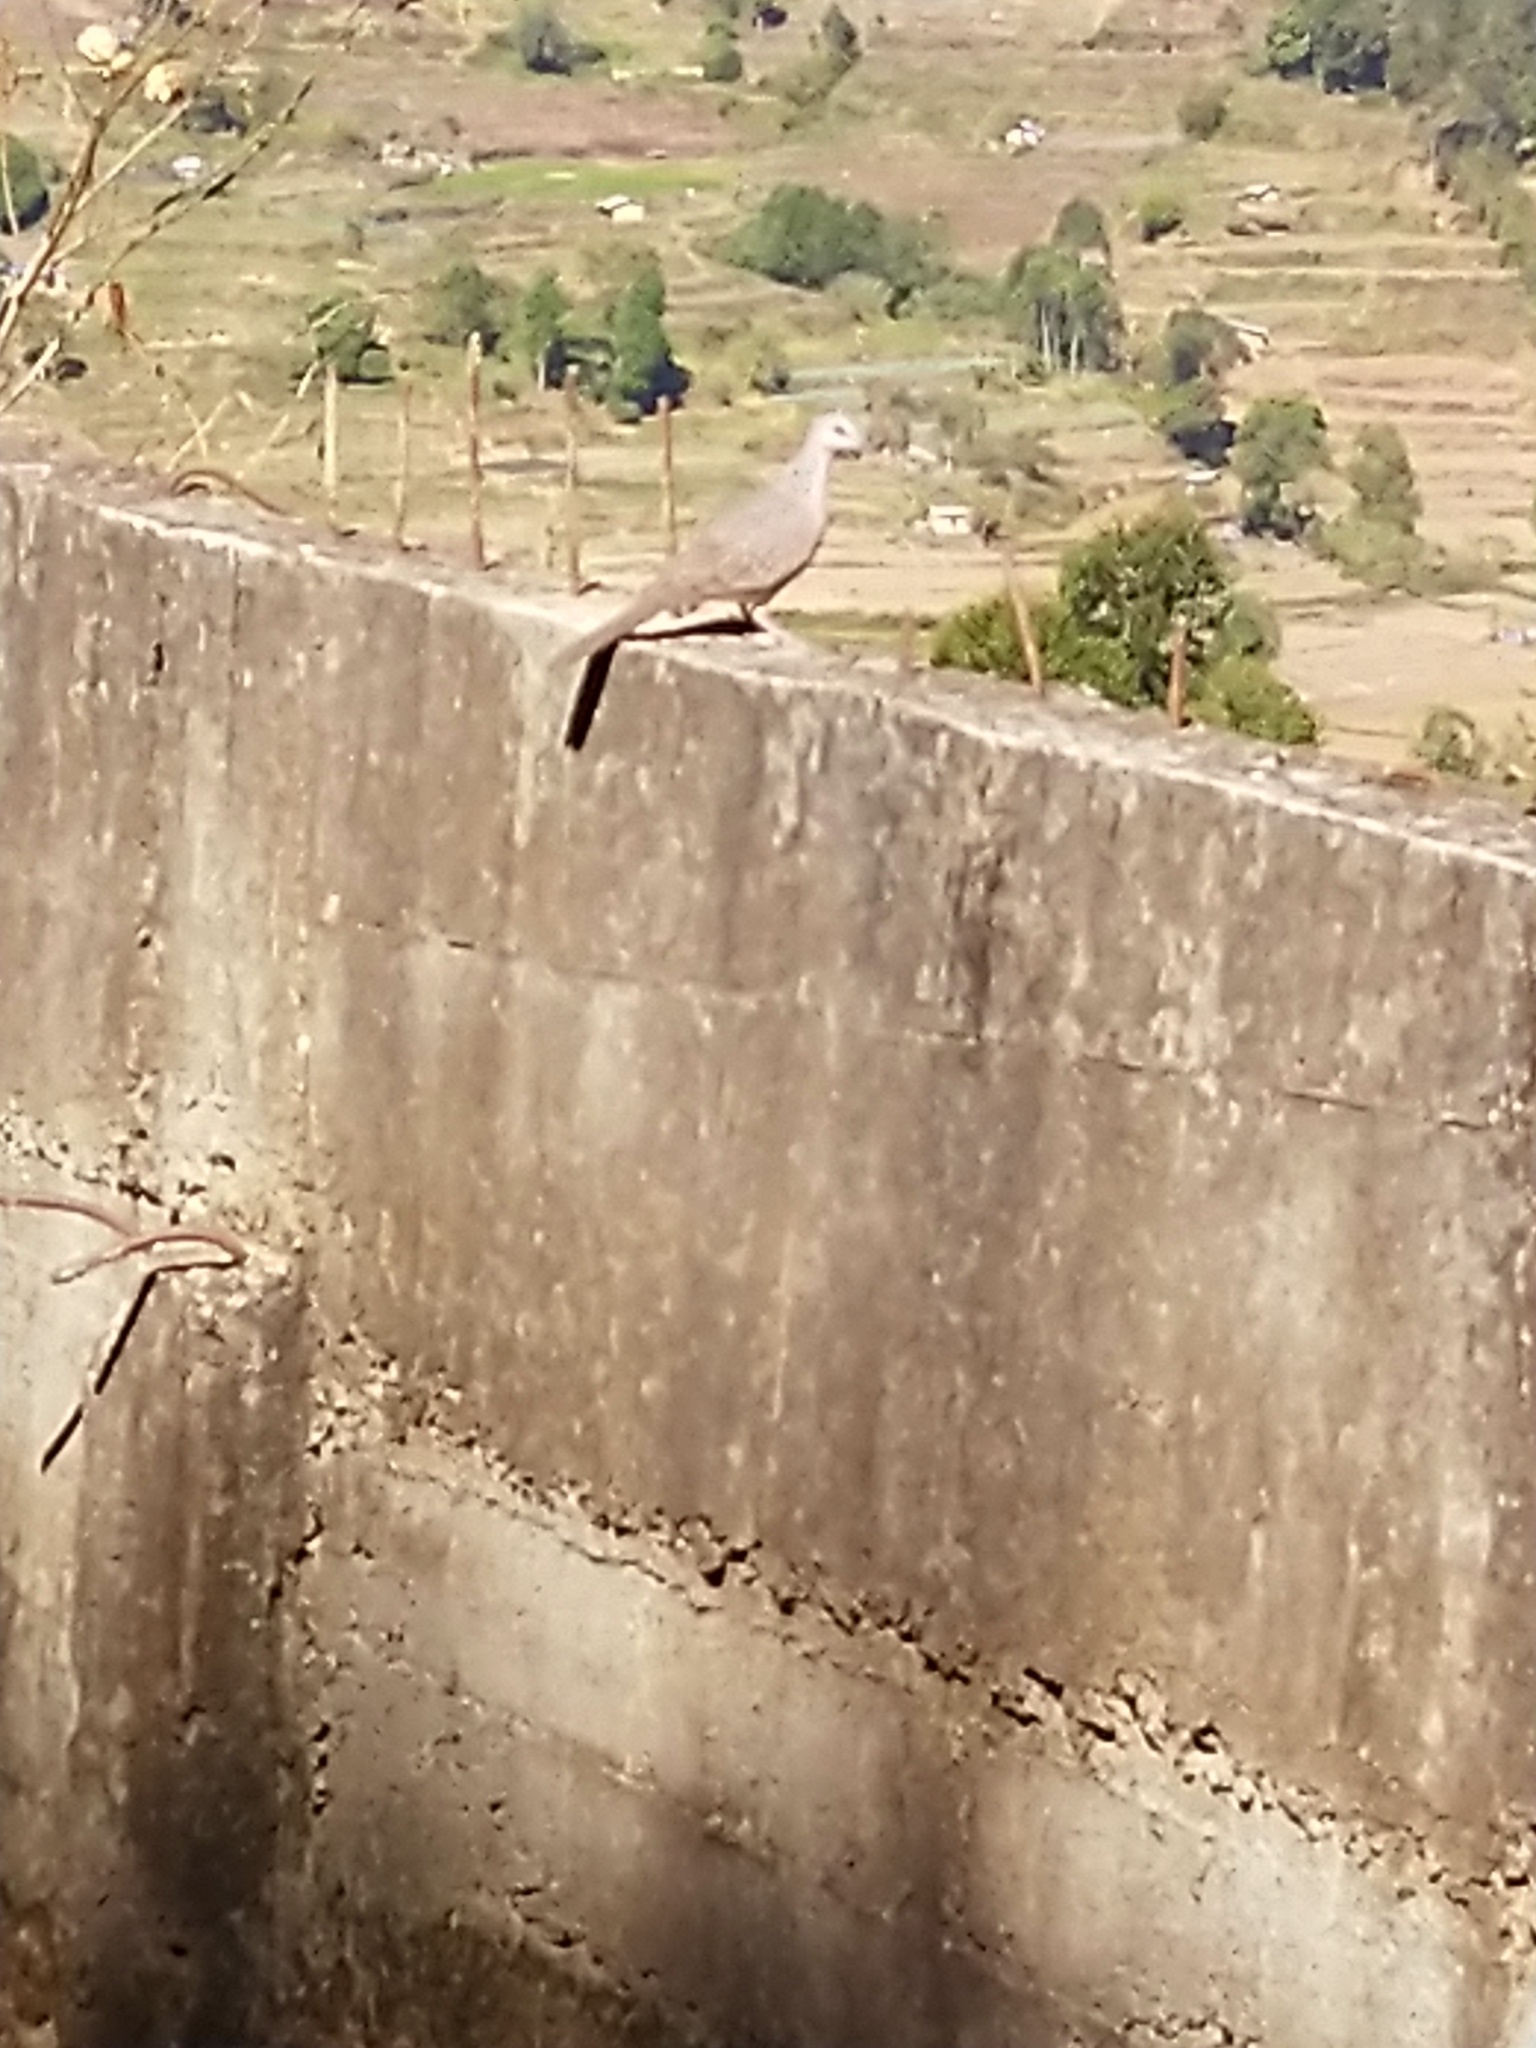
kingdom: Animalia
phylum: Chordata
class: Aves
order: Columbiformes
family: Columbidae
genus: Spilopelia
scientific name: Spilopelia chinensis
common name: Spotted dove
